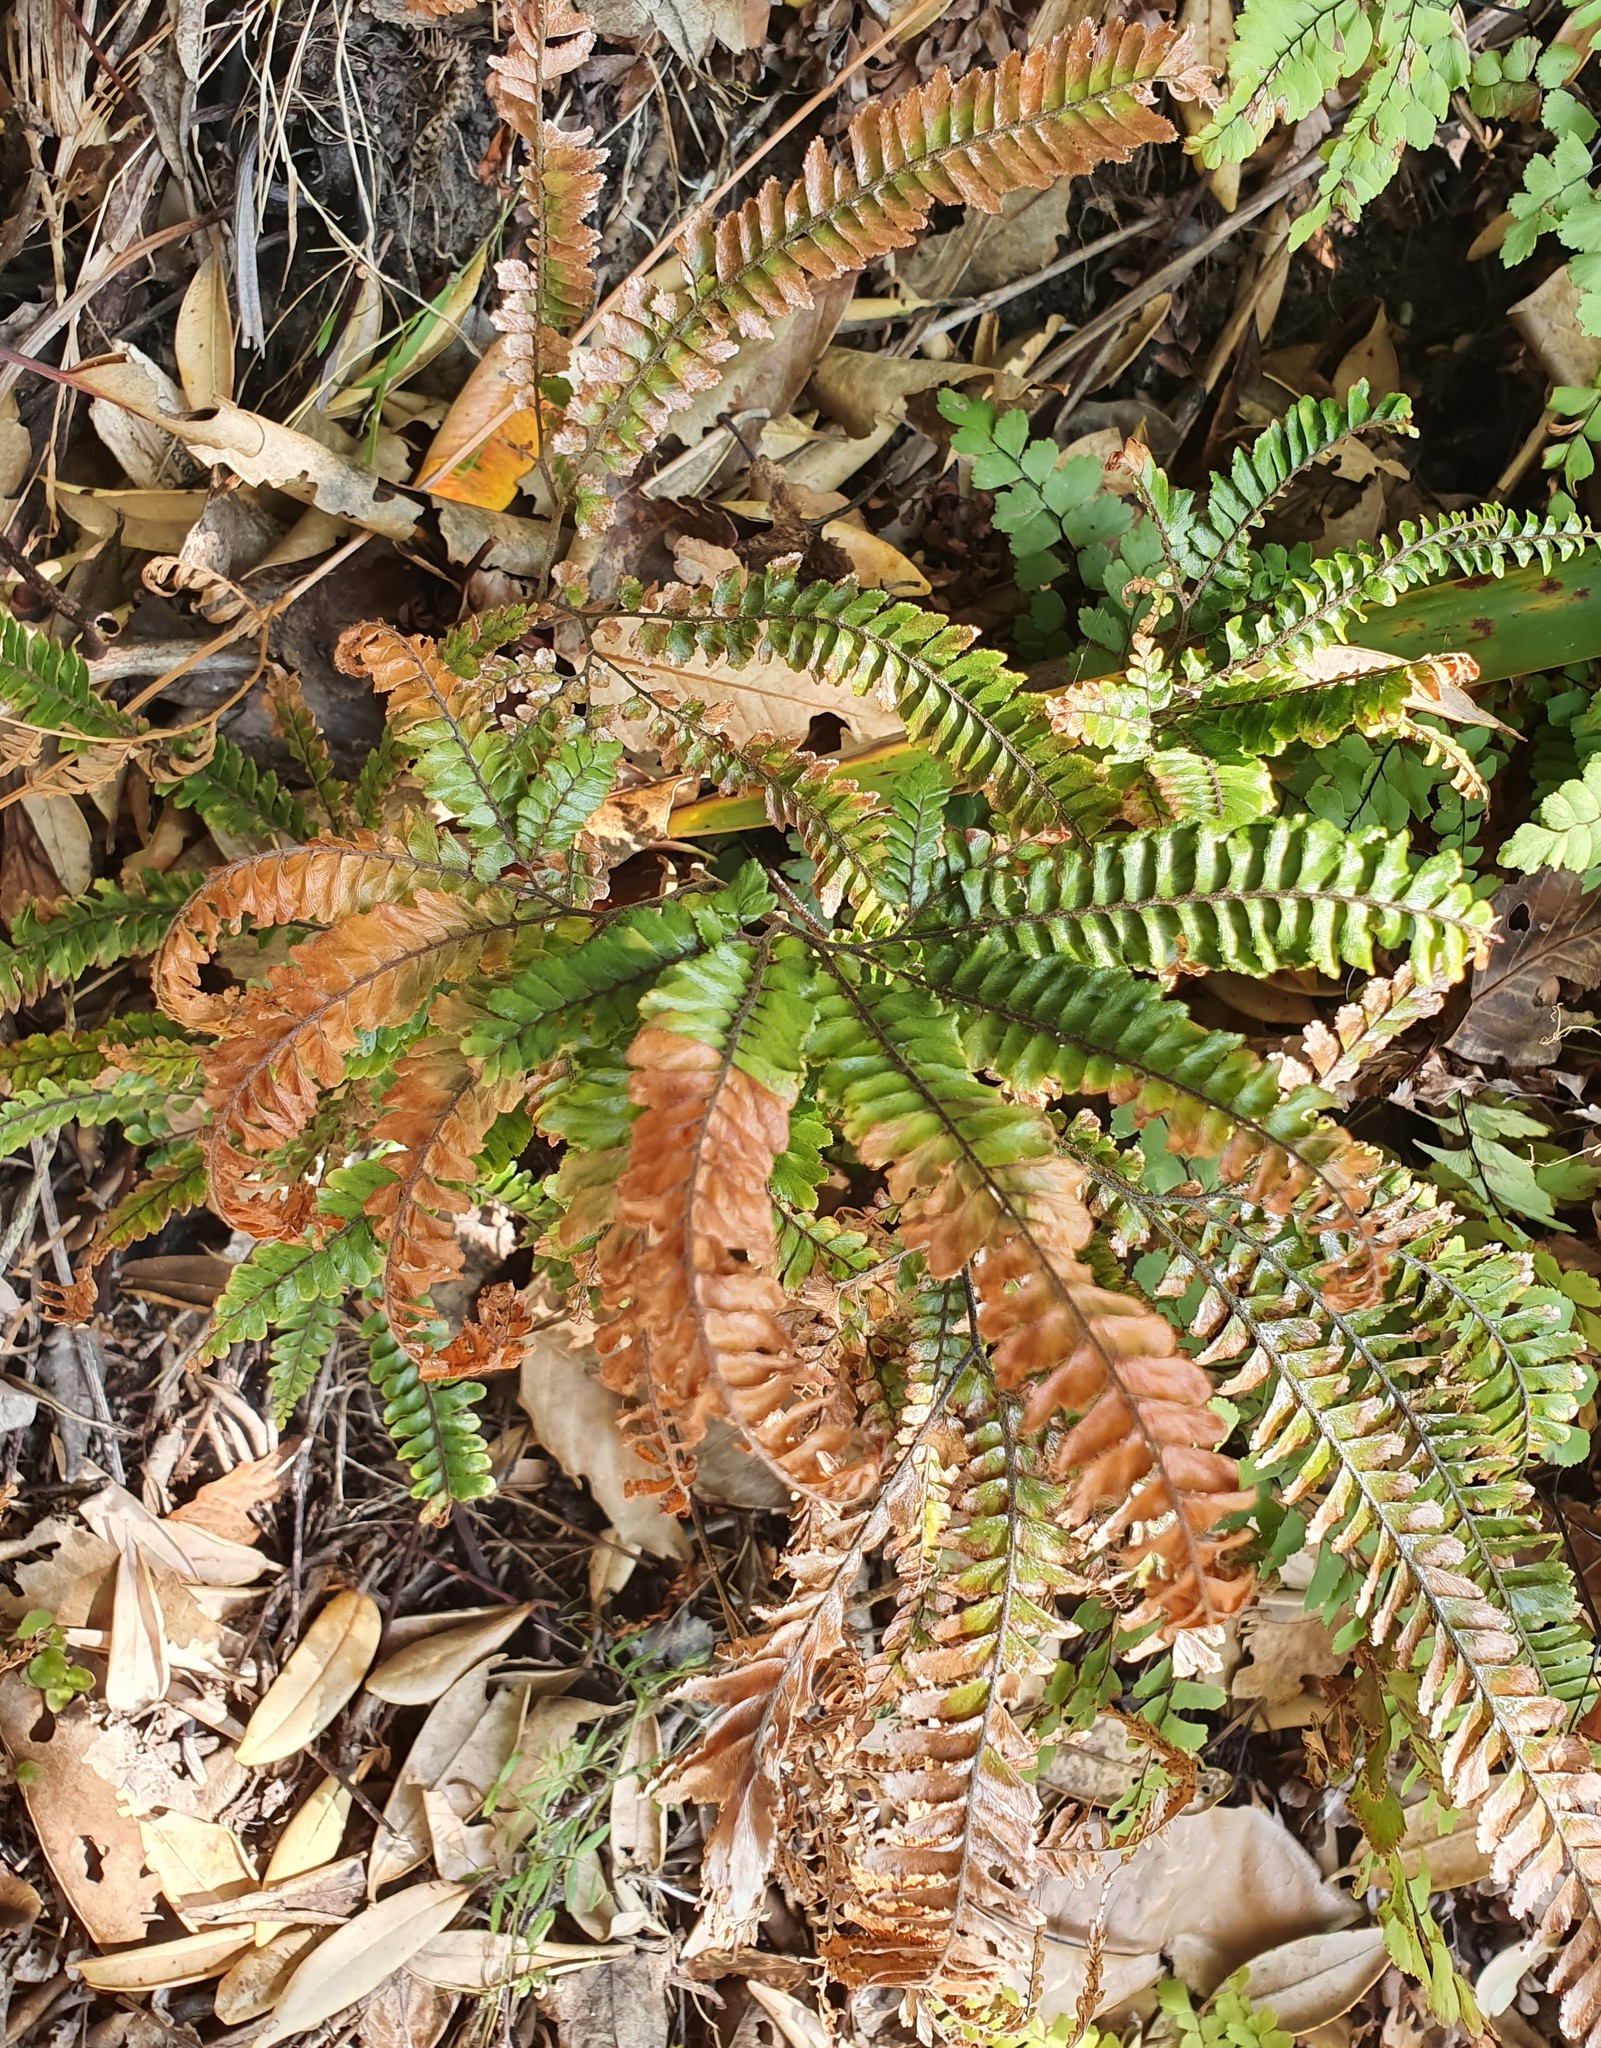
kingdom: Plantae
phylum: Tracheophyta
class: Polypodiopsida
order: Polypodiales
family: Pteridaceae
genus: Adiantum
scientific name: Adiantum hispidulum
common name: Rough maidenhair
